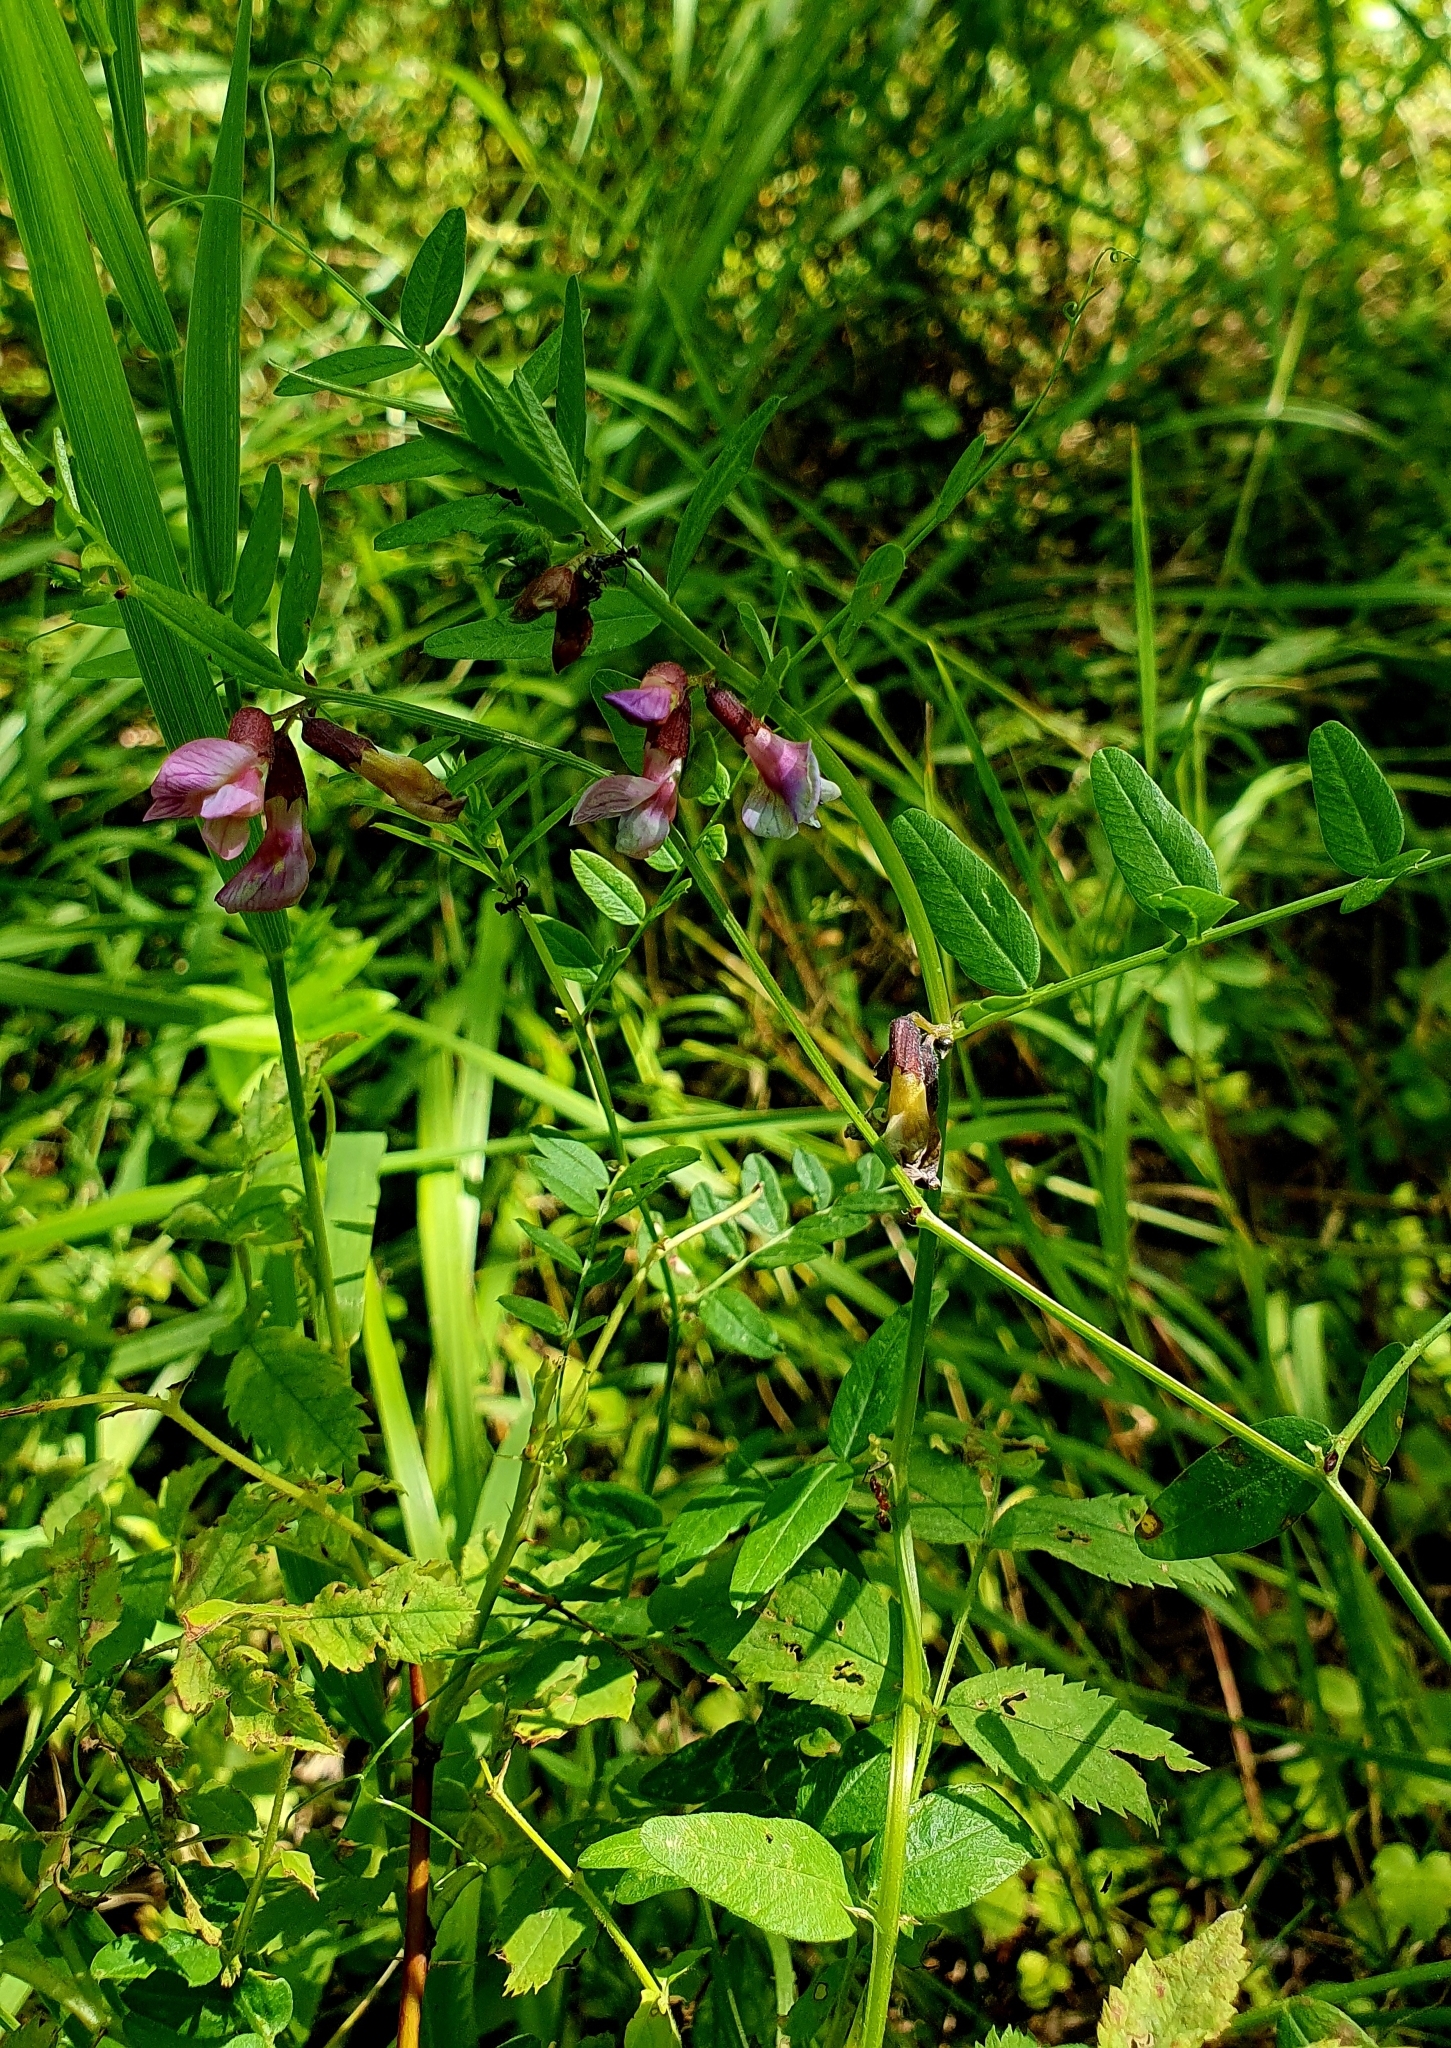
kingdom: Plantae
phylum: Tracheophyta
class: Magnoliopsida
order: Fabales
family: Fabaceae
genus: Vicia
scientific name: Vicia sepium
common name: Bush vetch
